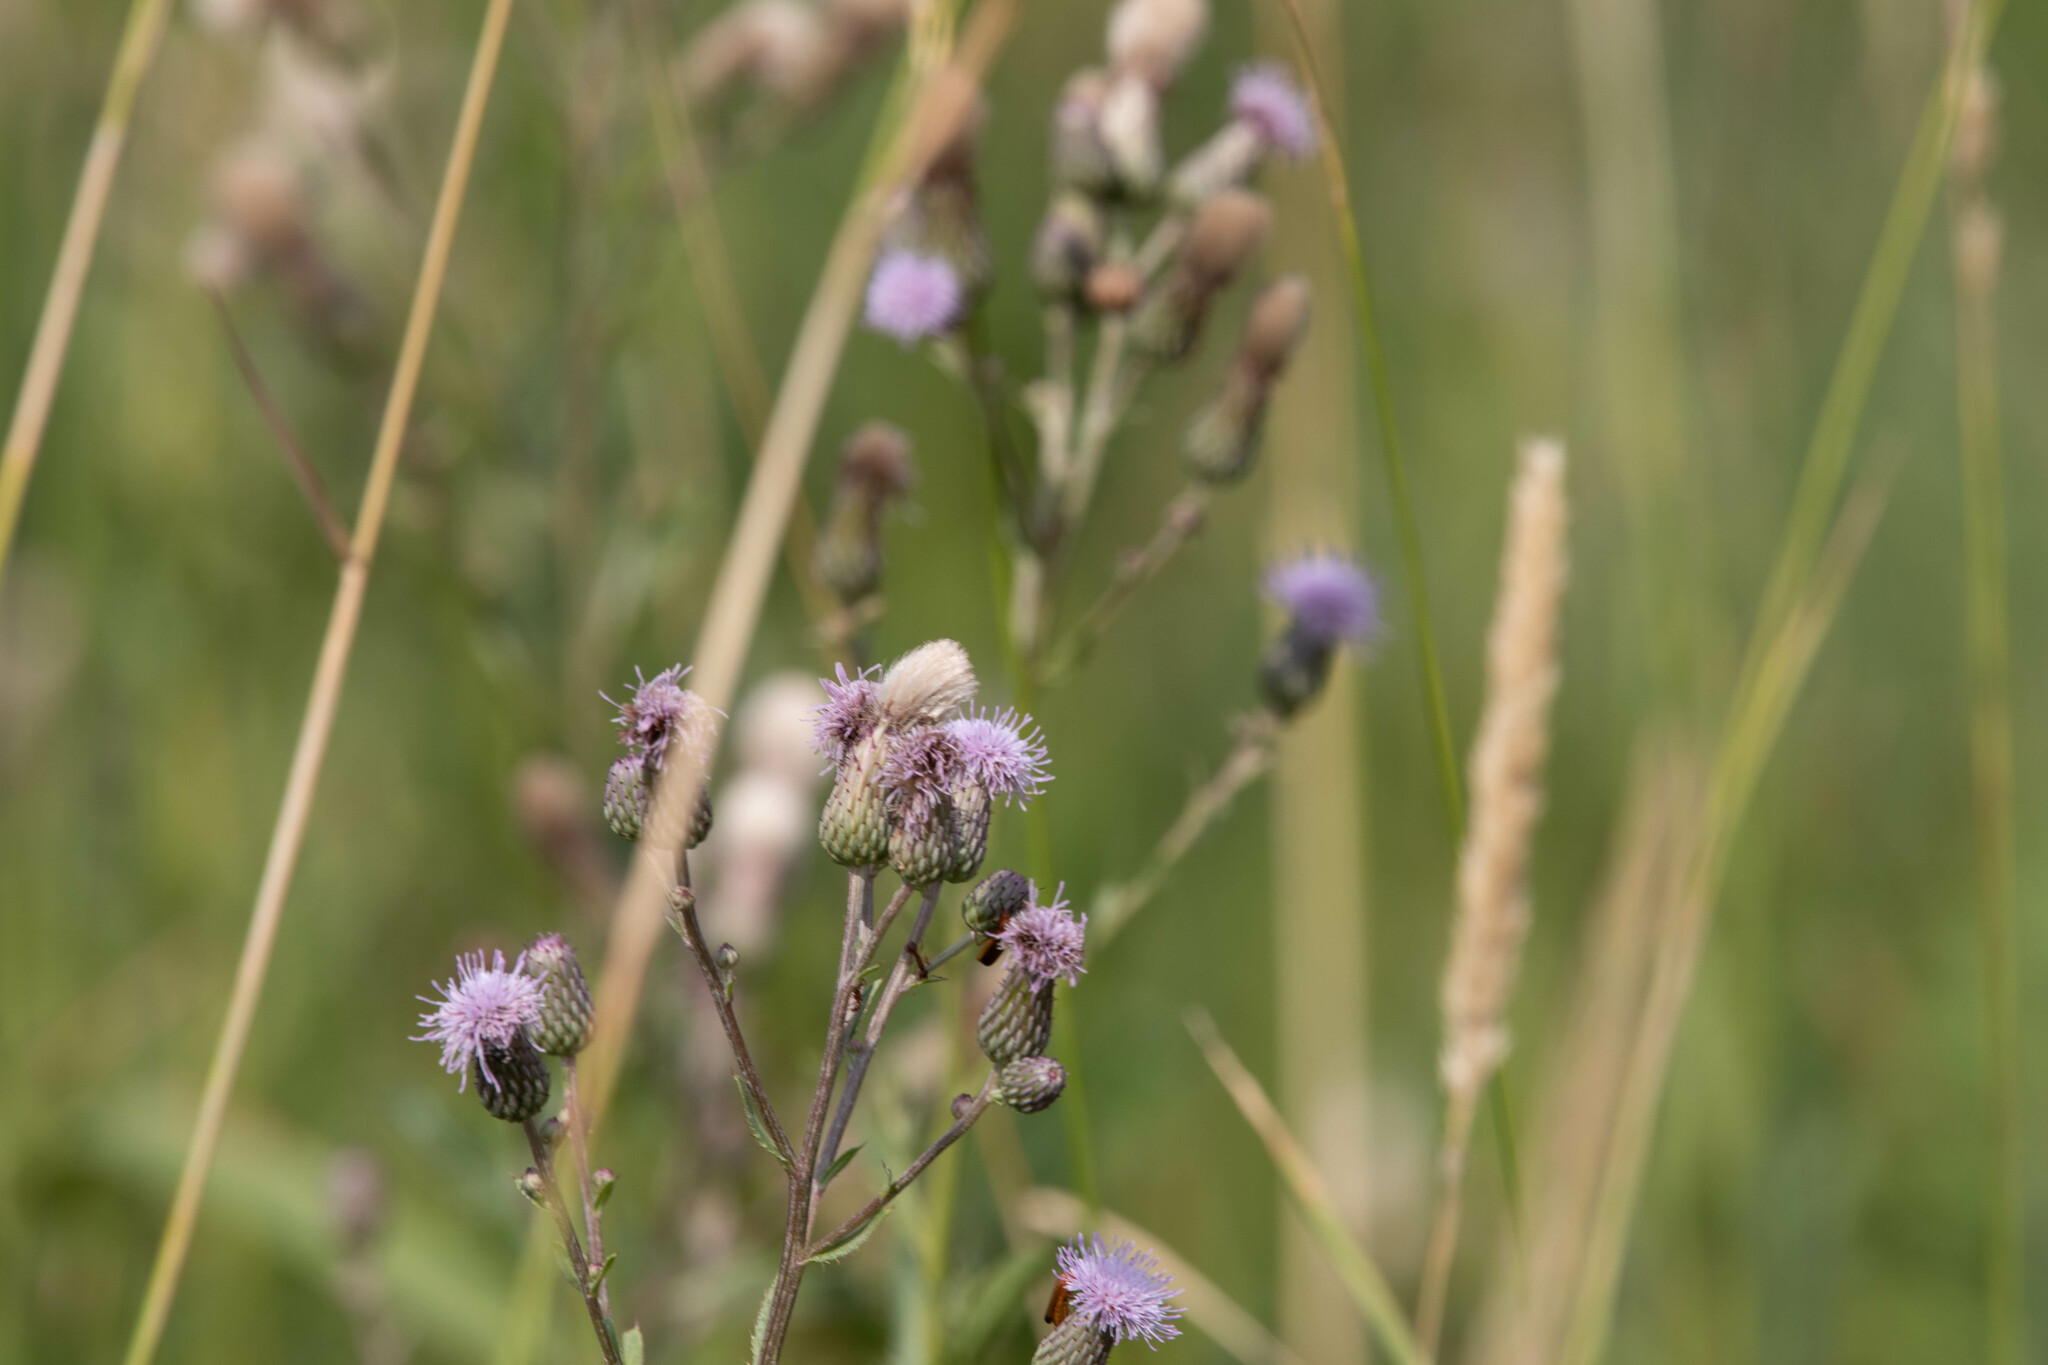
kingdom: Plantae
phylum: Tracheophyta
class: Magnoliopsida
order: Asterales
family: Asteraceae
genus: Cirsium
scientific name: Cirsium arvense
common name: Creeping thistle
